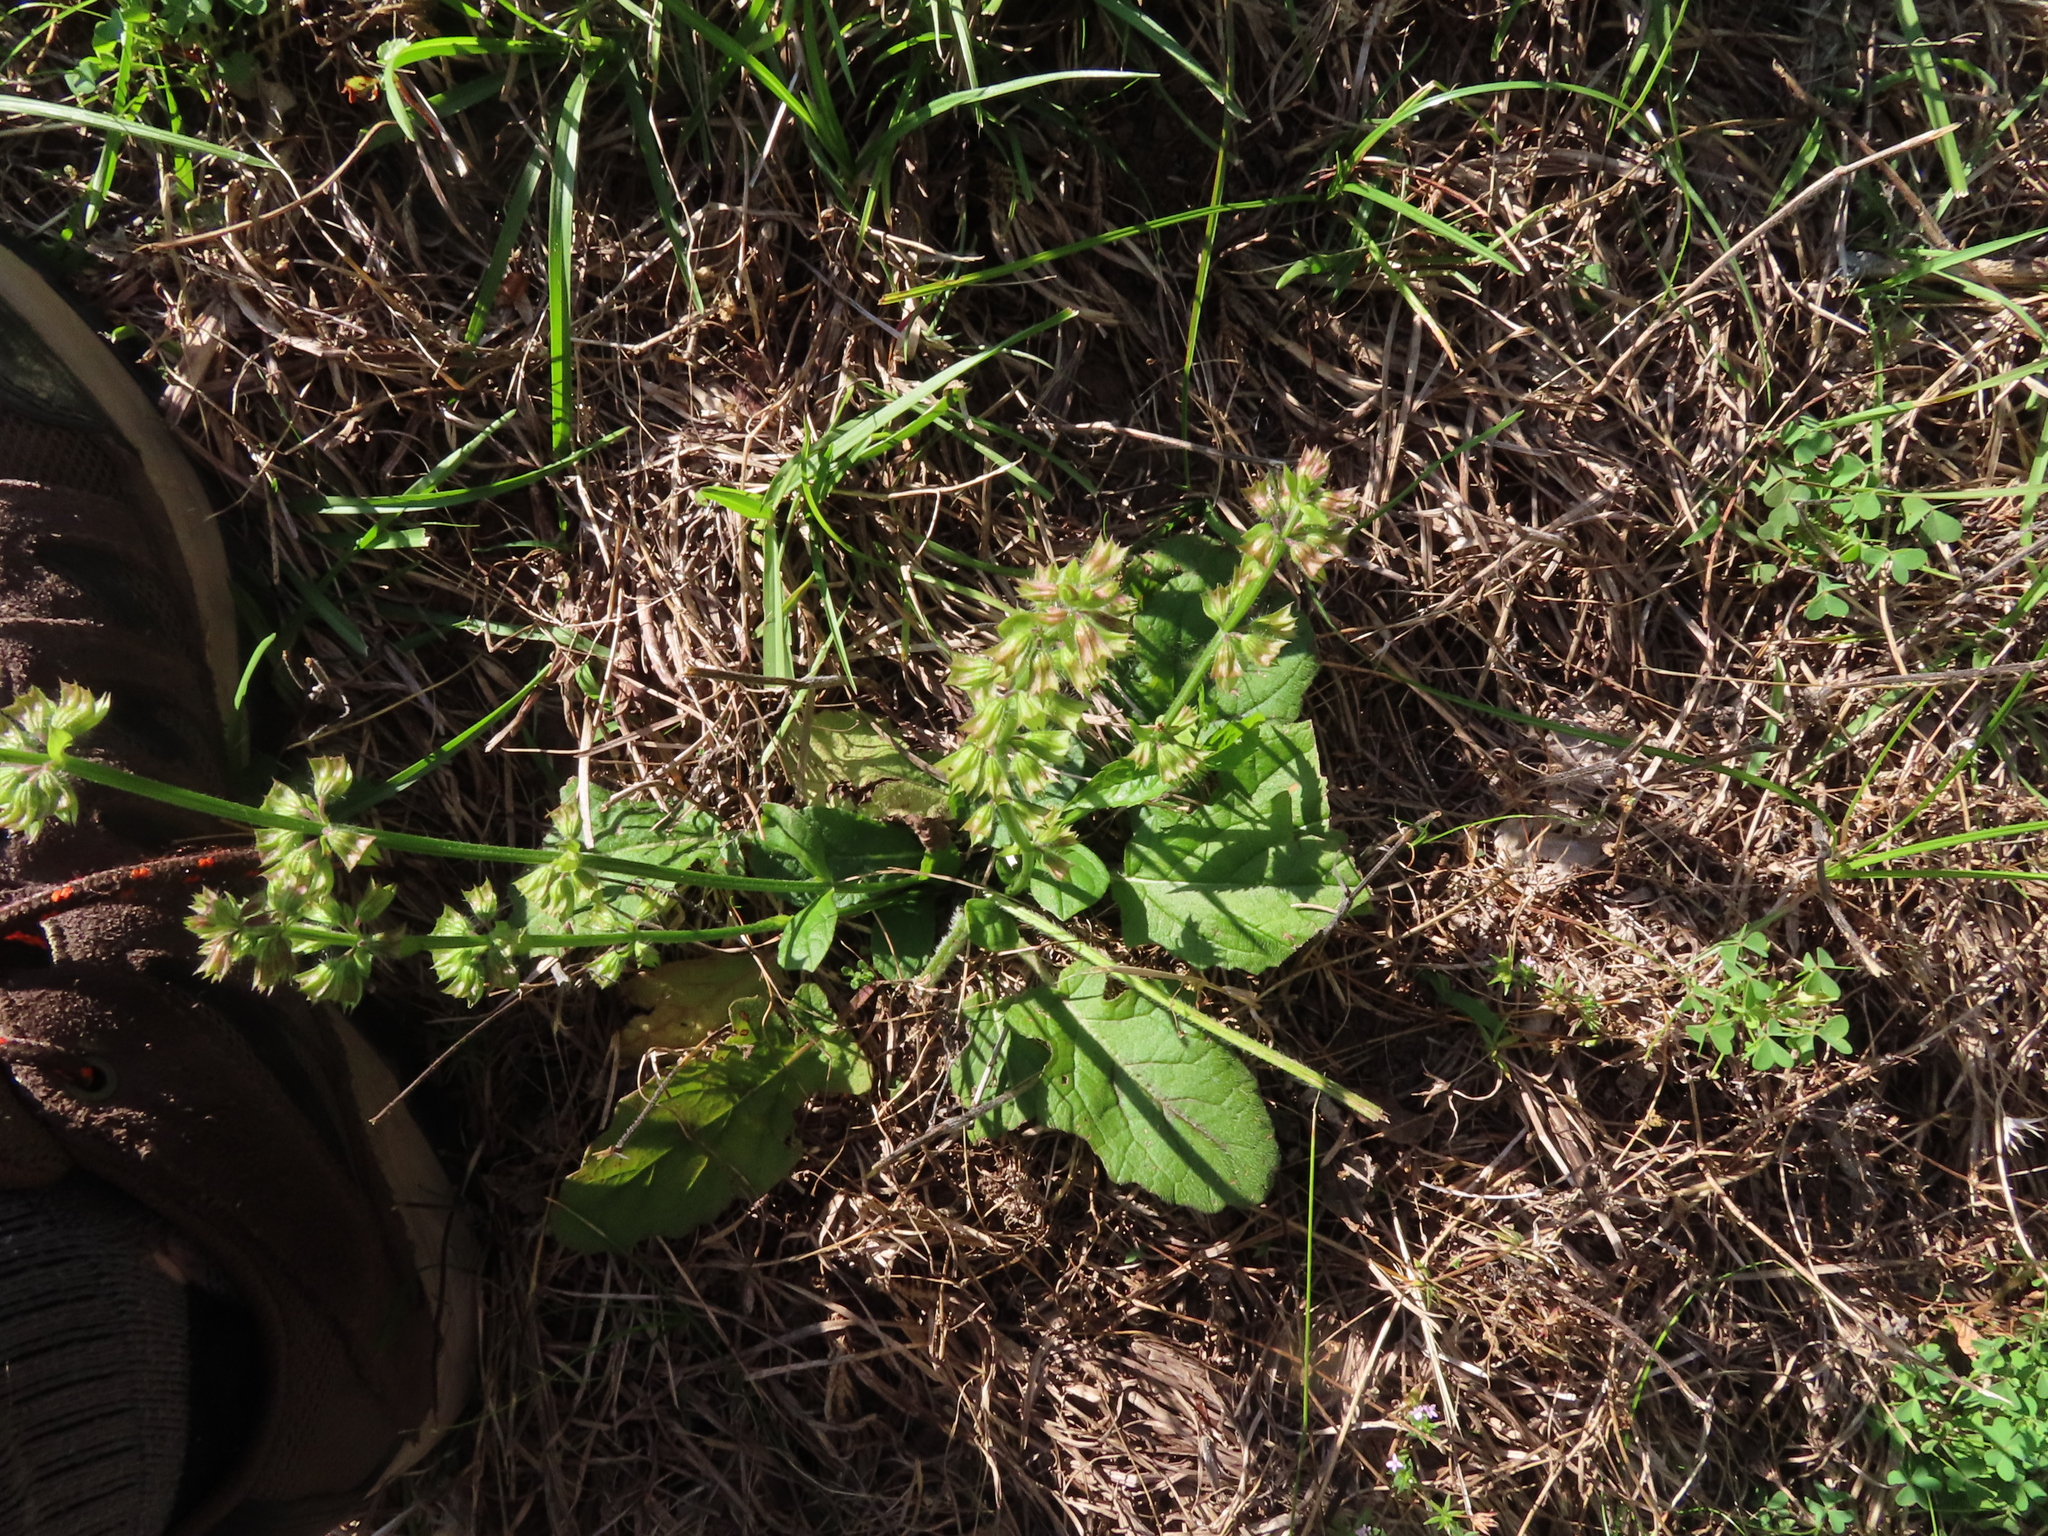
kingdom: Plantae
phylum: Tracheophyta
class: Magnoliopsida
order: Lamiales
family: Lamiaceae
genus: Salvia
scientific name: Salvia lyrata
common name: Cancerweed
